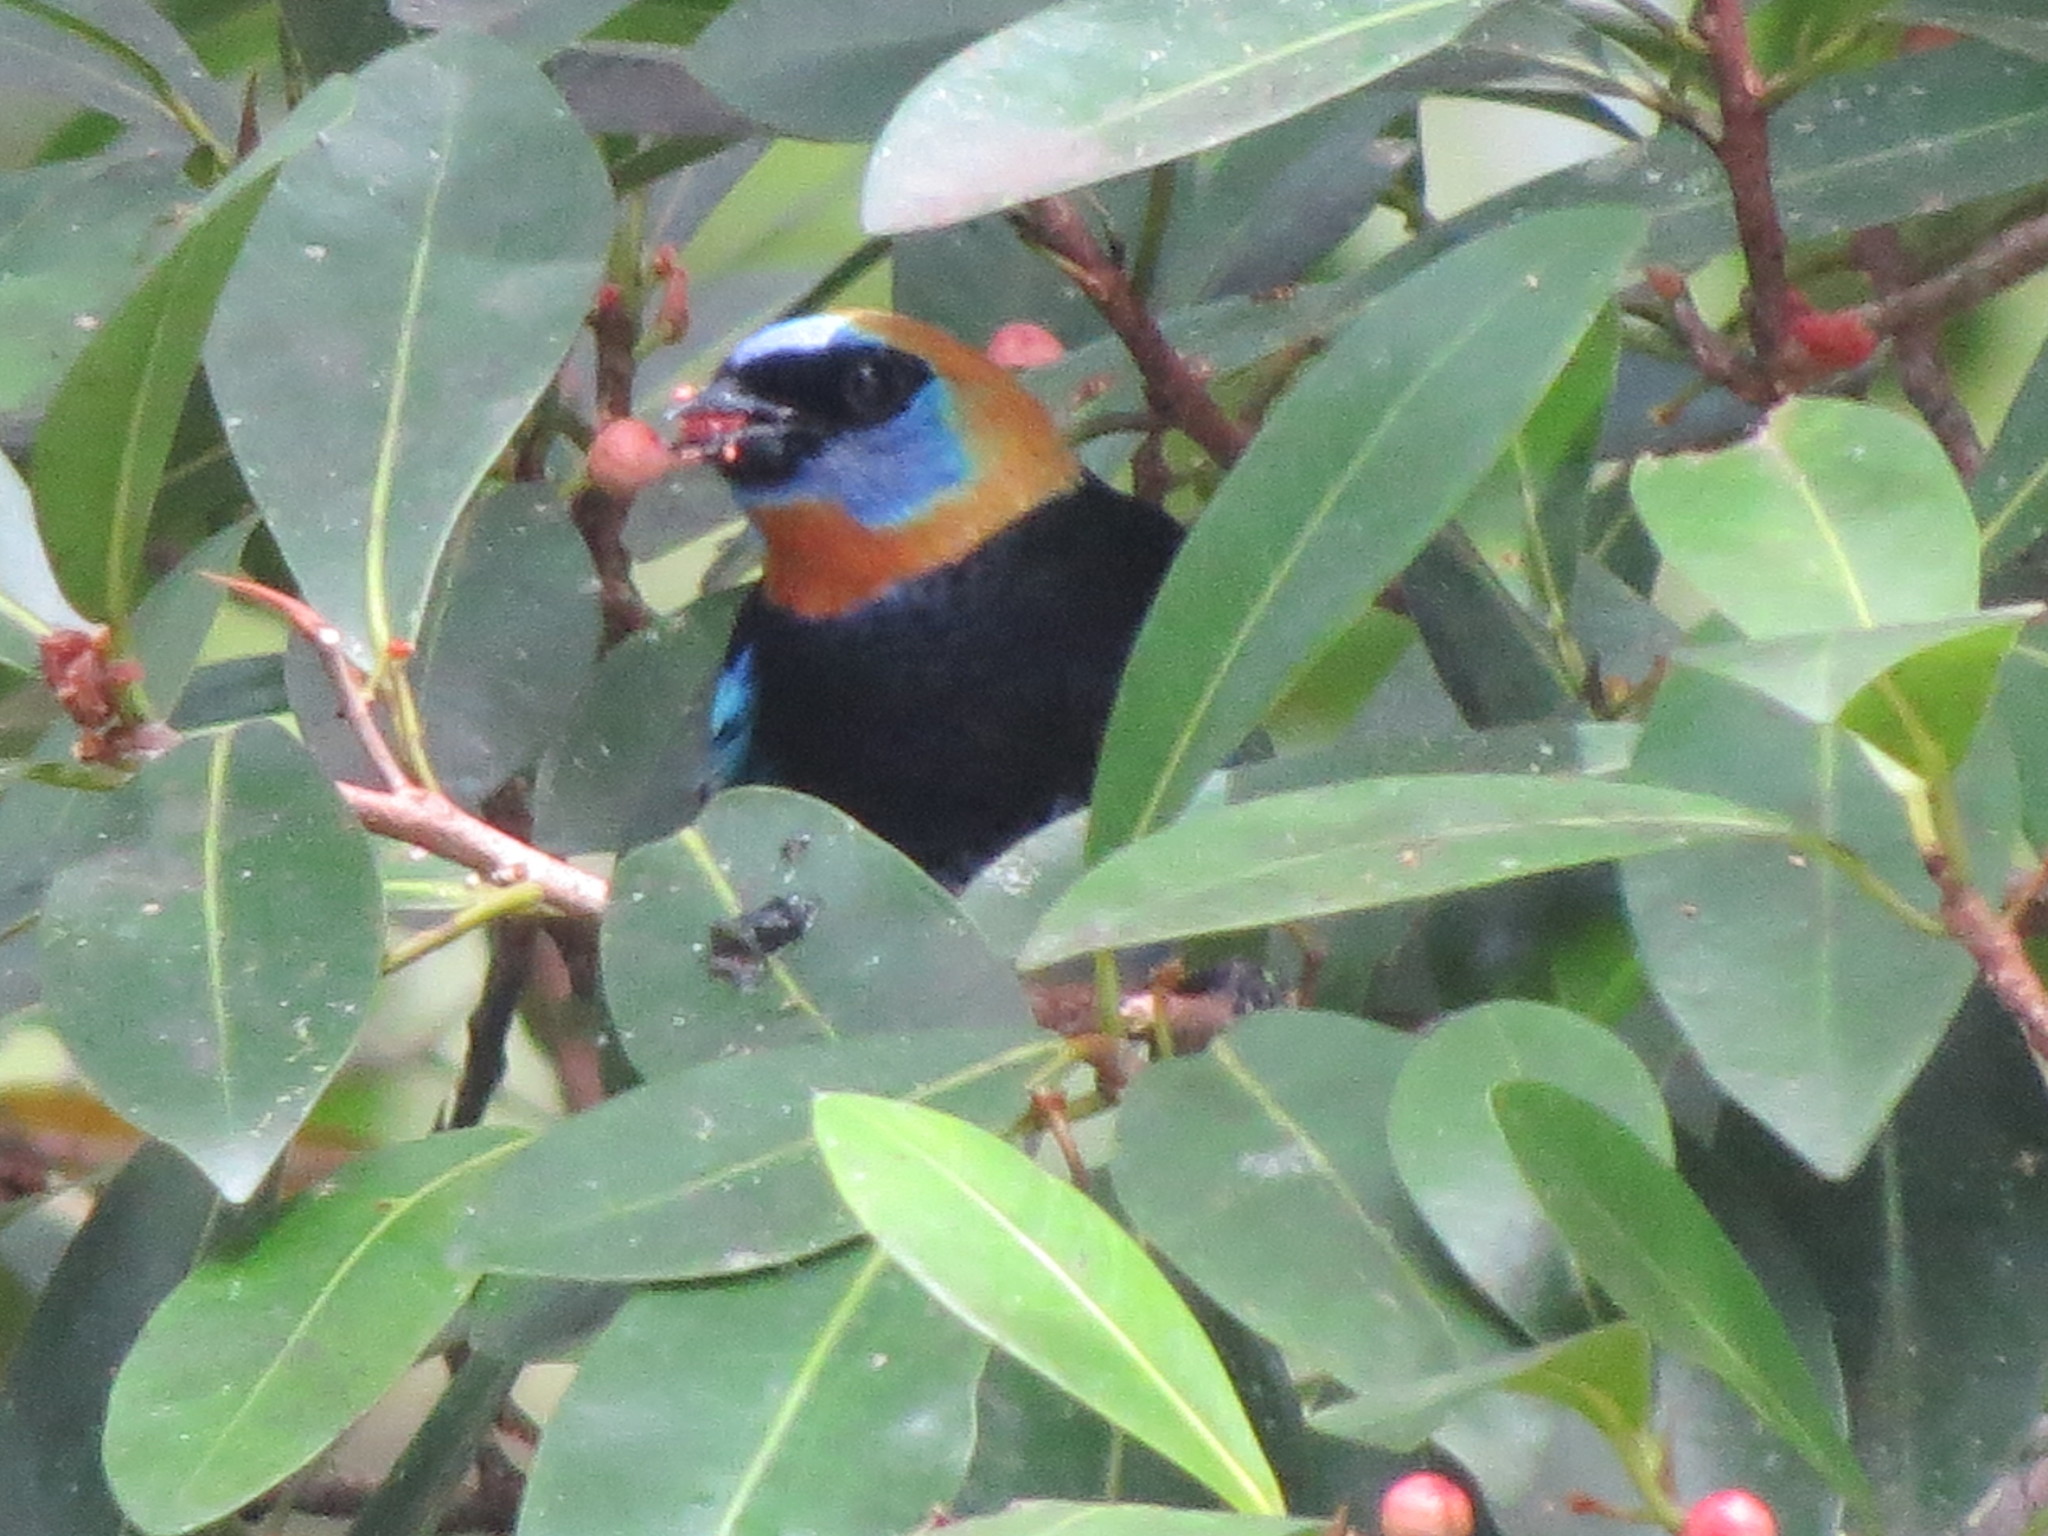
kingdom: Animalia
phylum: Chordata
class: Aves
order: Passeriformes
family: Thraupidae
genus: Stilpnia
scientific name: Stilpnia larvata
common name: Golden-hooded tanager
